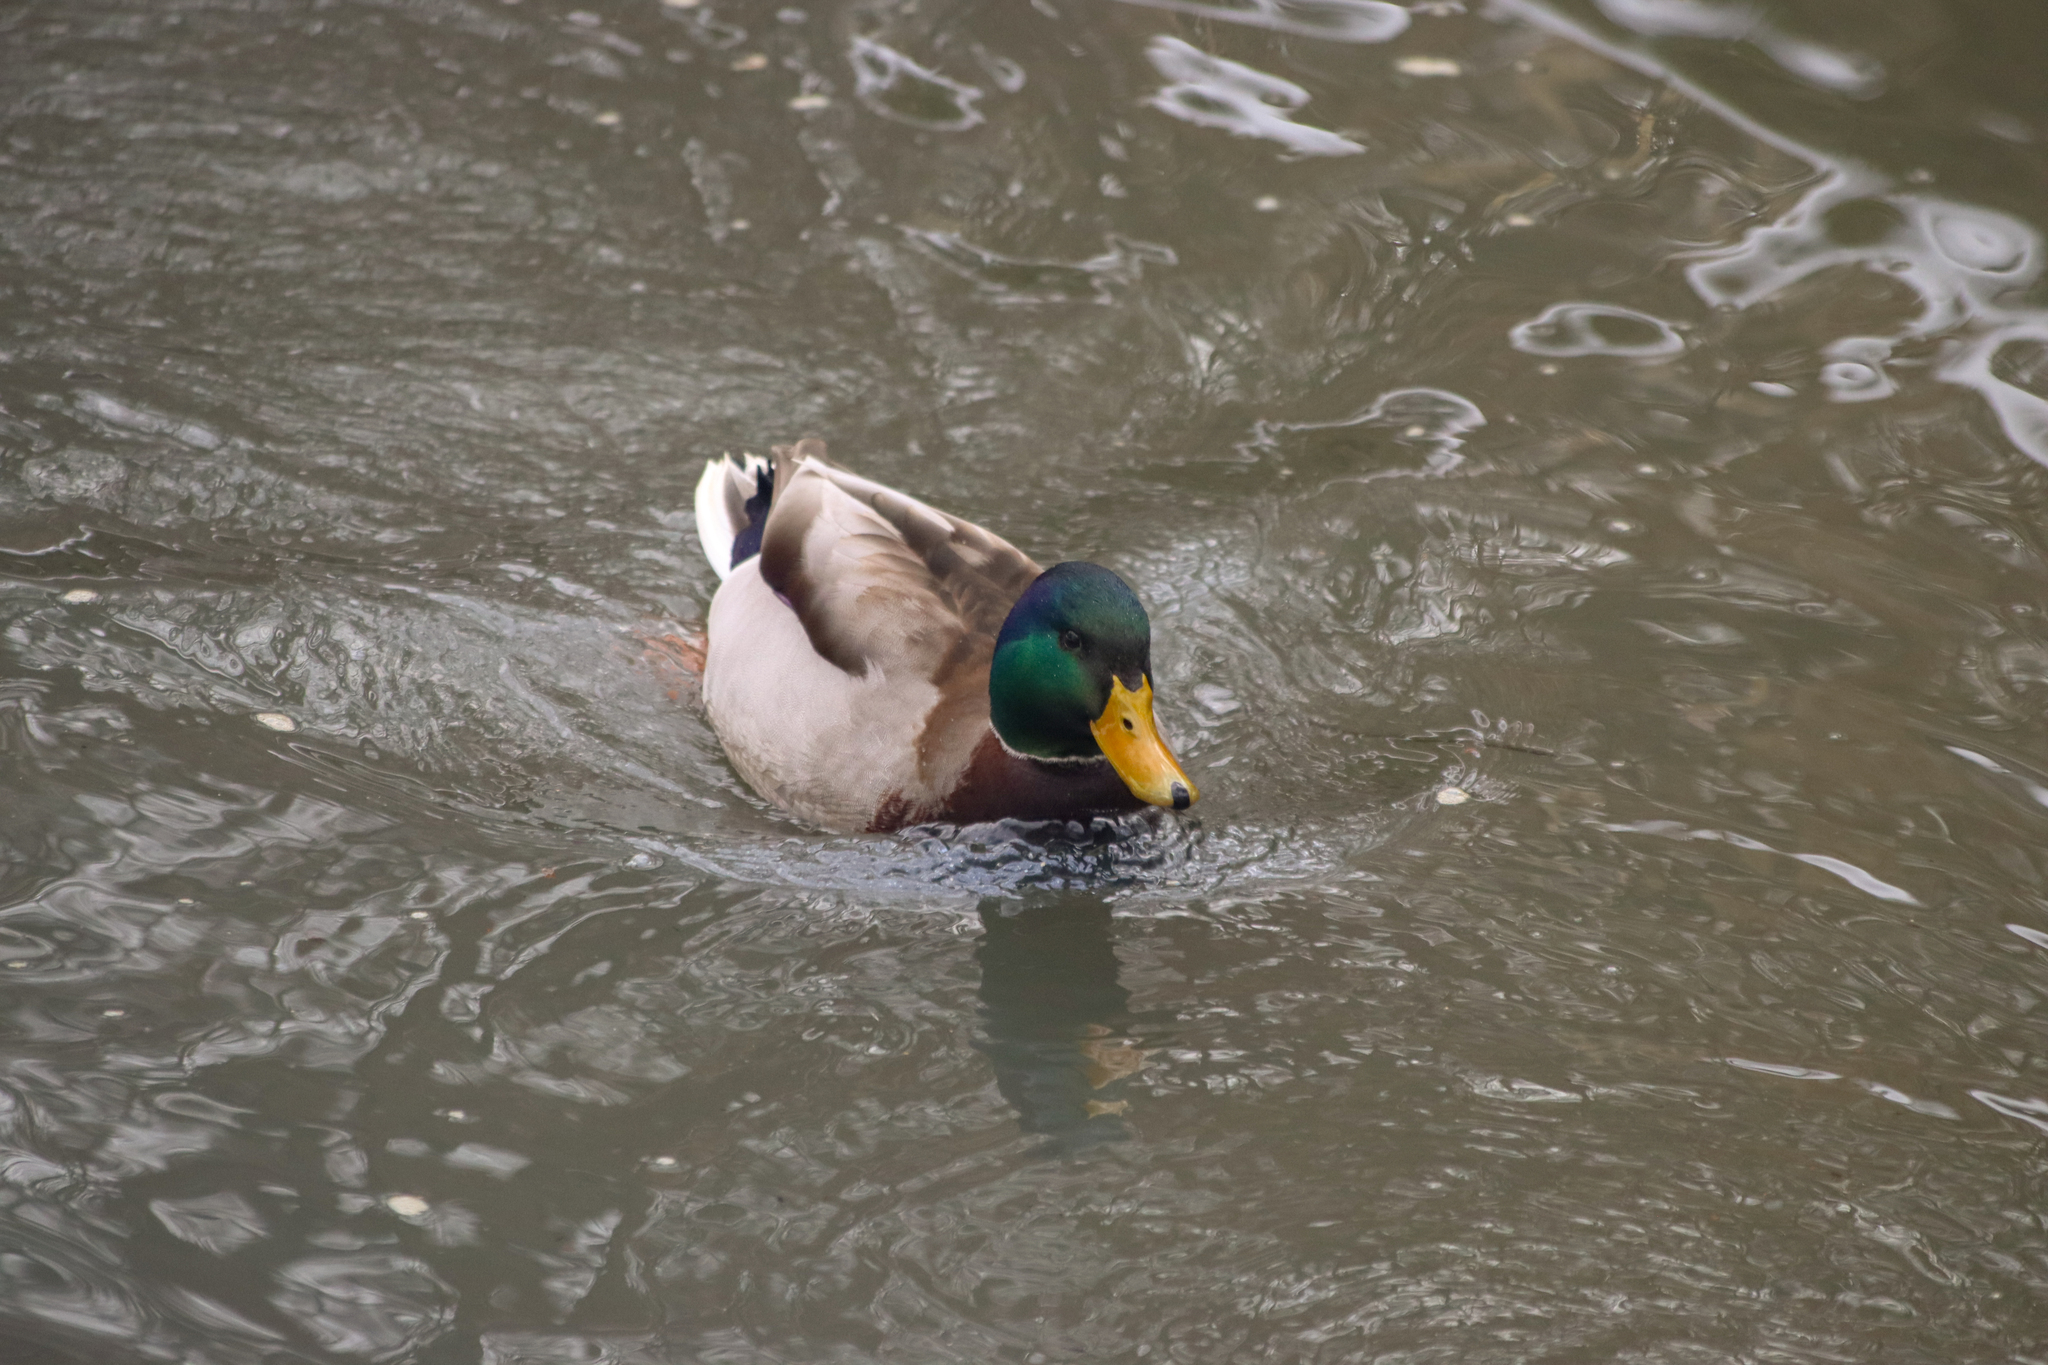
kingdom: Animalia
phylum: Chordata
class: Aves
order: Anseriformes
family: Anatidae
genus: Anas
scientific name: Anas platyrhynchos
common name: Mallard
